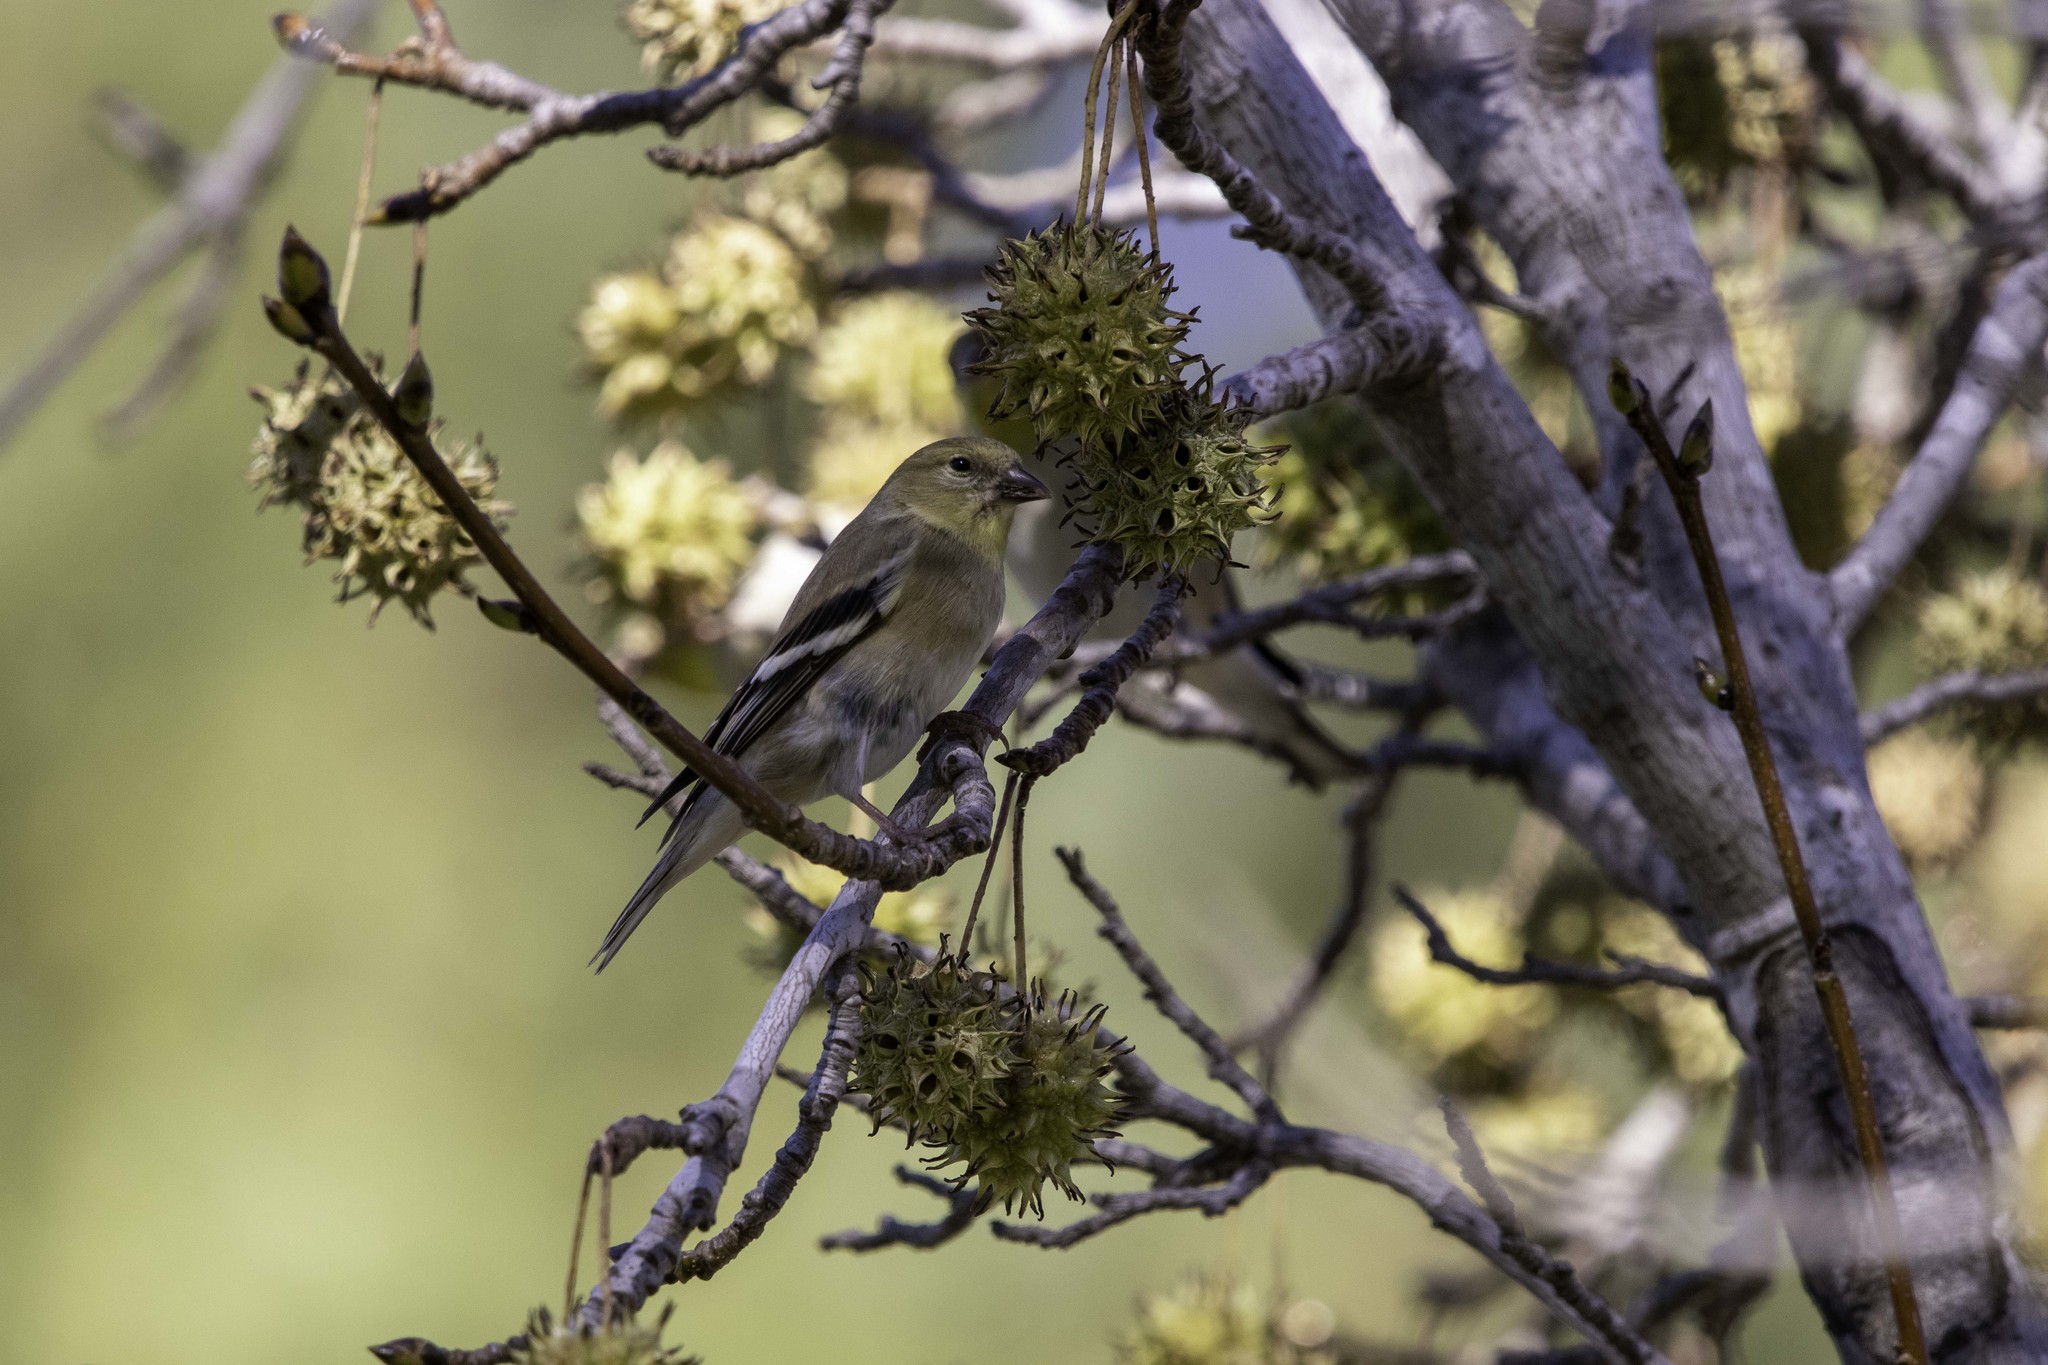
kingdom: Animalia
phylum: Chordata
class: Aves
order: Passeriformes
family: Fringillidae
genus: Spinus
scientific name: Spinus tristis
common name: American goldfinch
